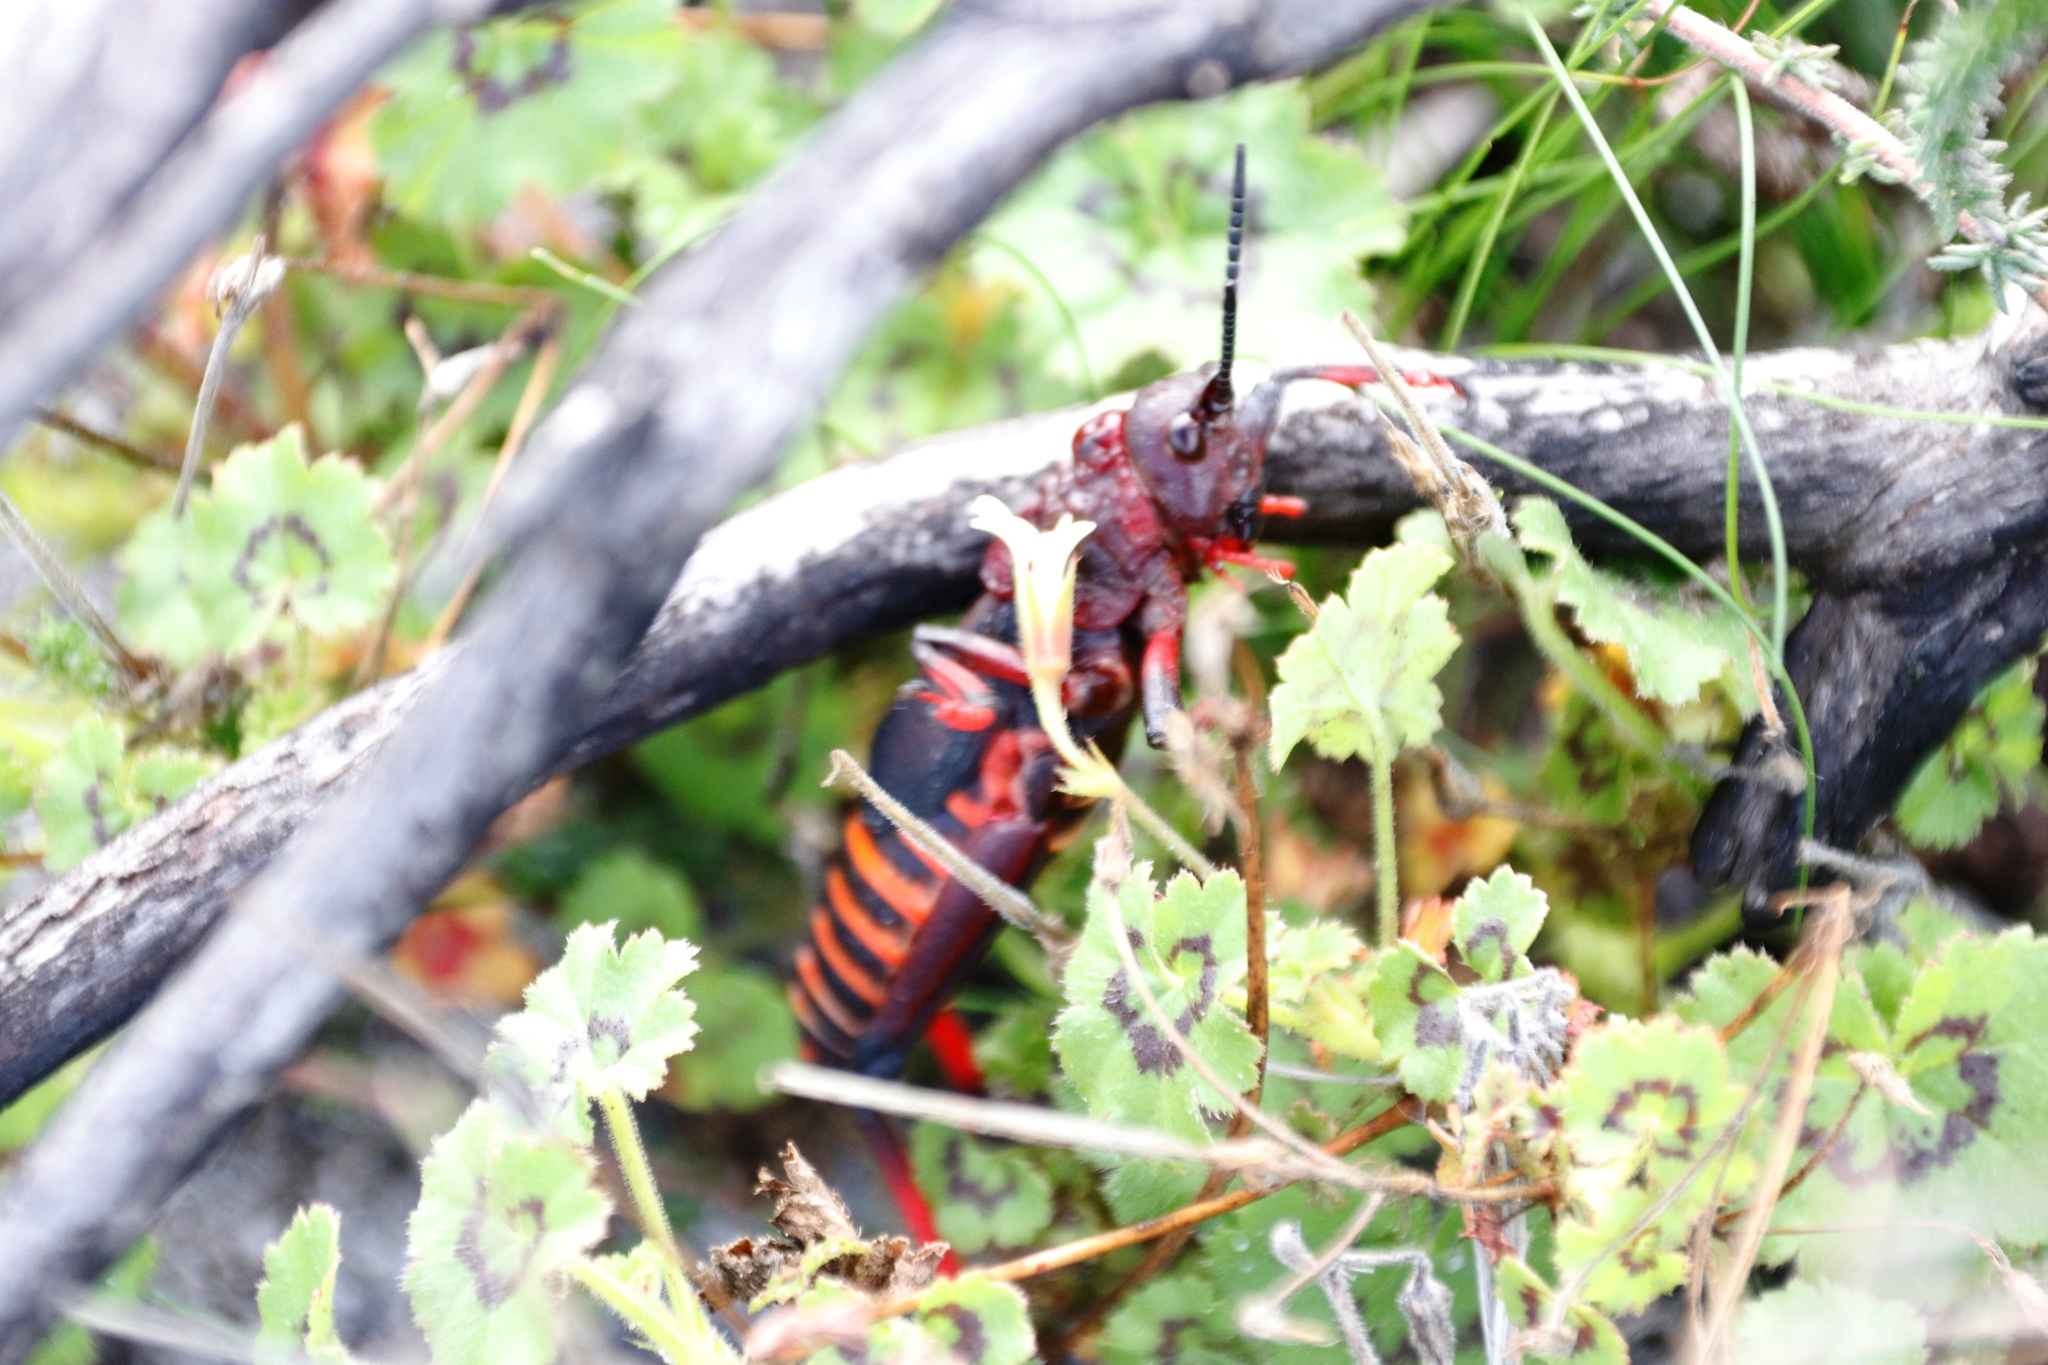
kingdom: Animalia
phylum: Arthropoda
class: Insecta
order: Orthoptera
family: Pyrgomorphidae
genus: Dictyophorus
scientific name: Dictyophorus spumans
